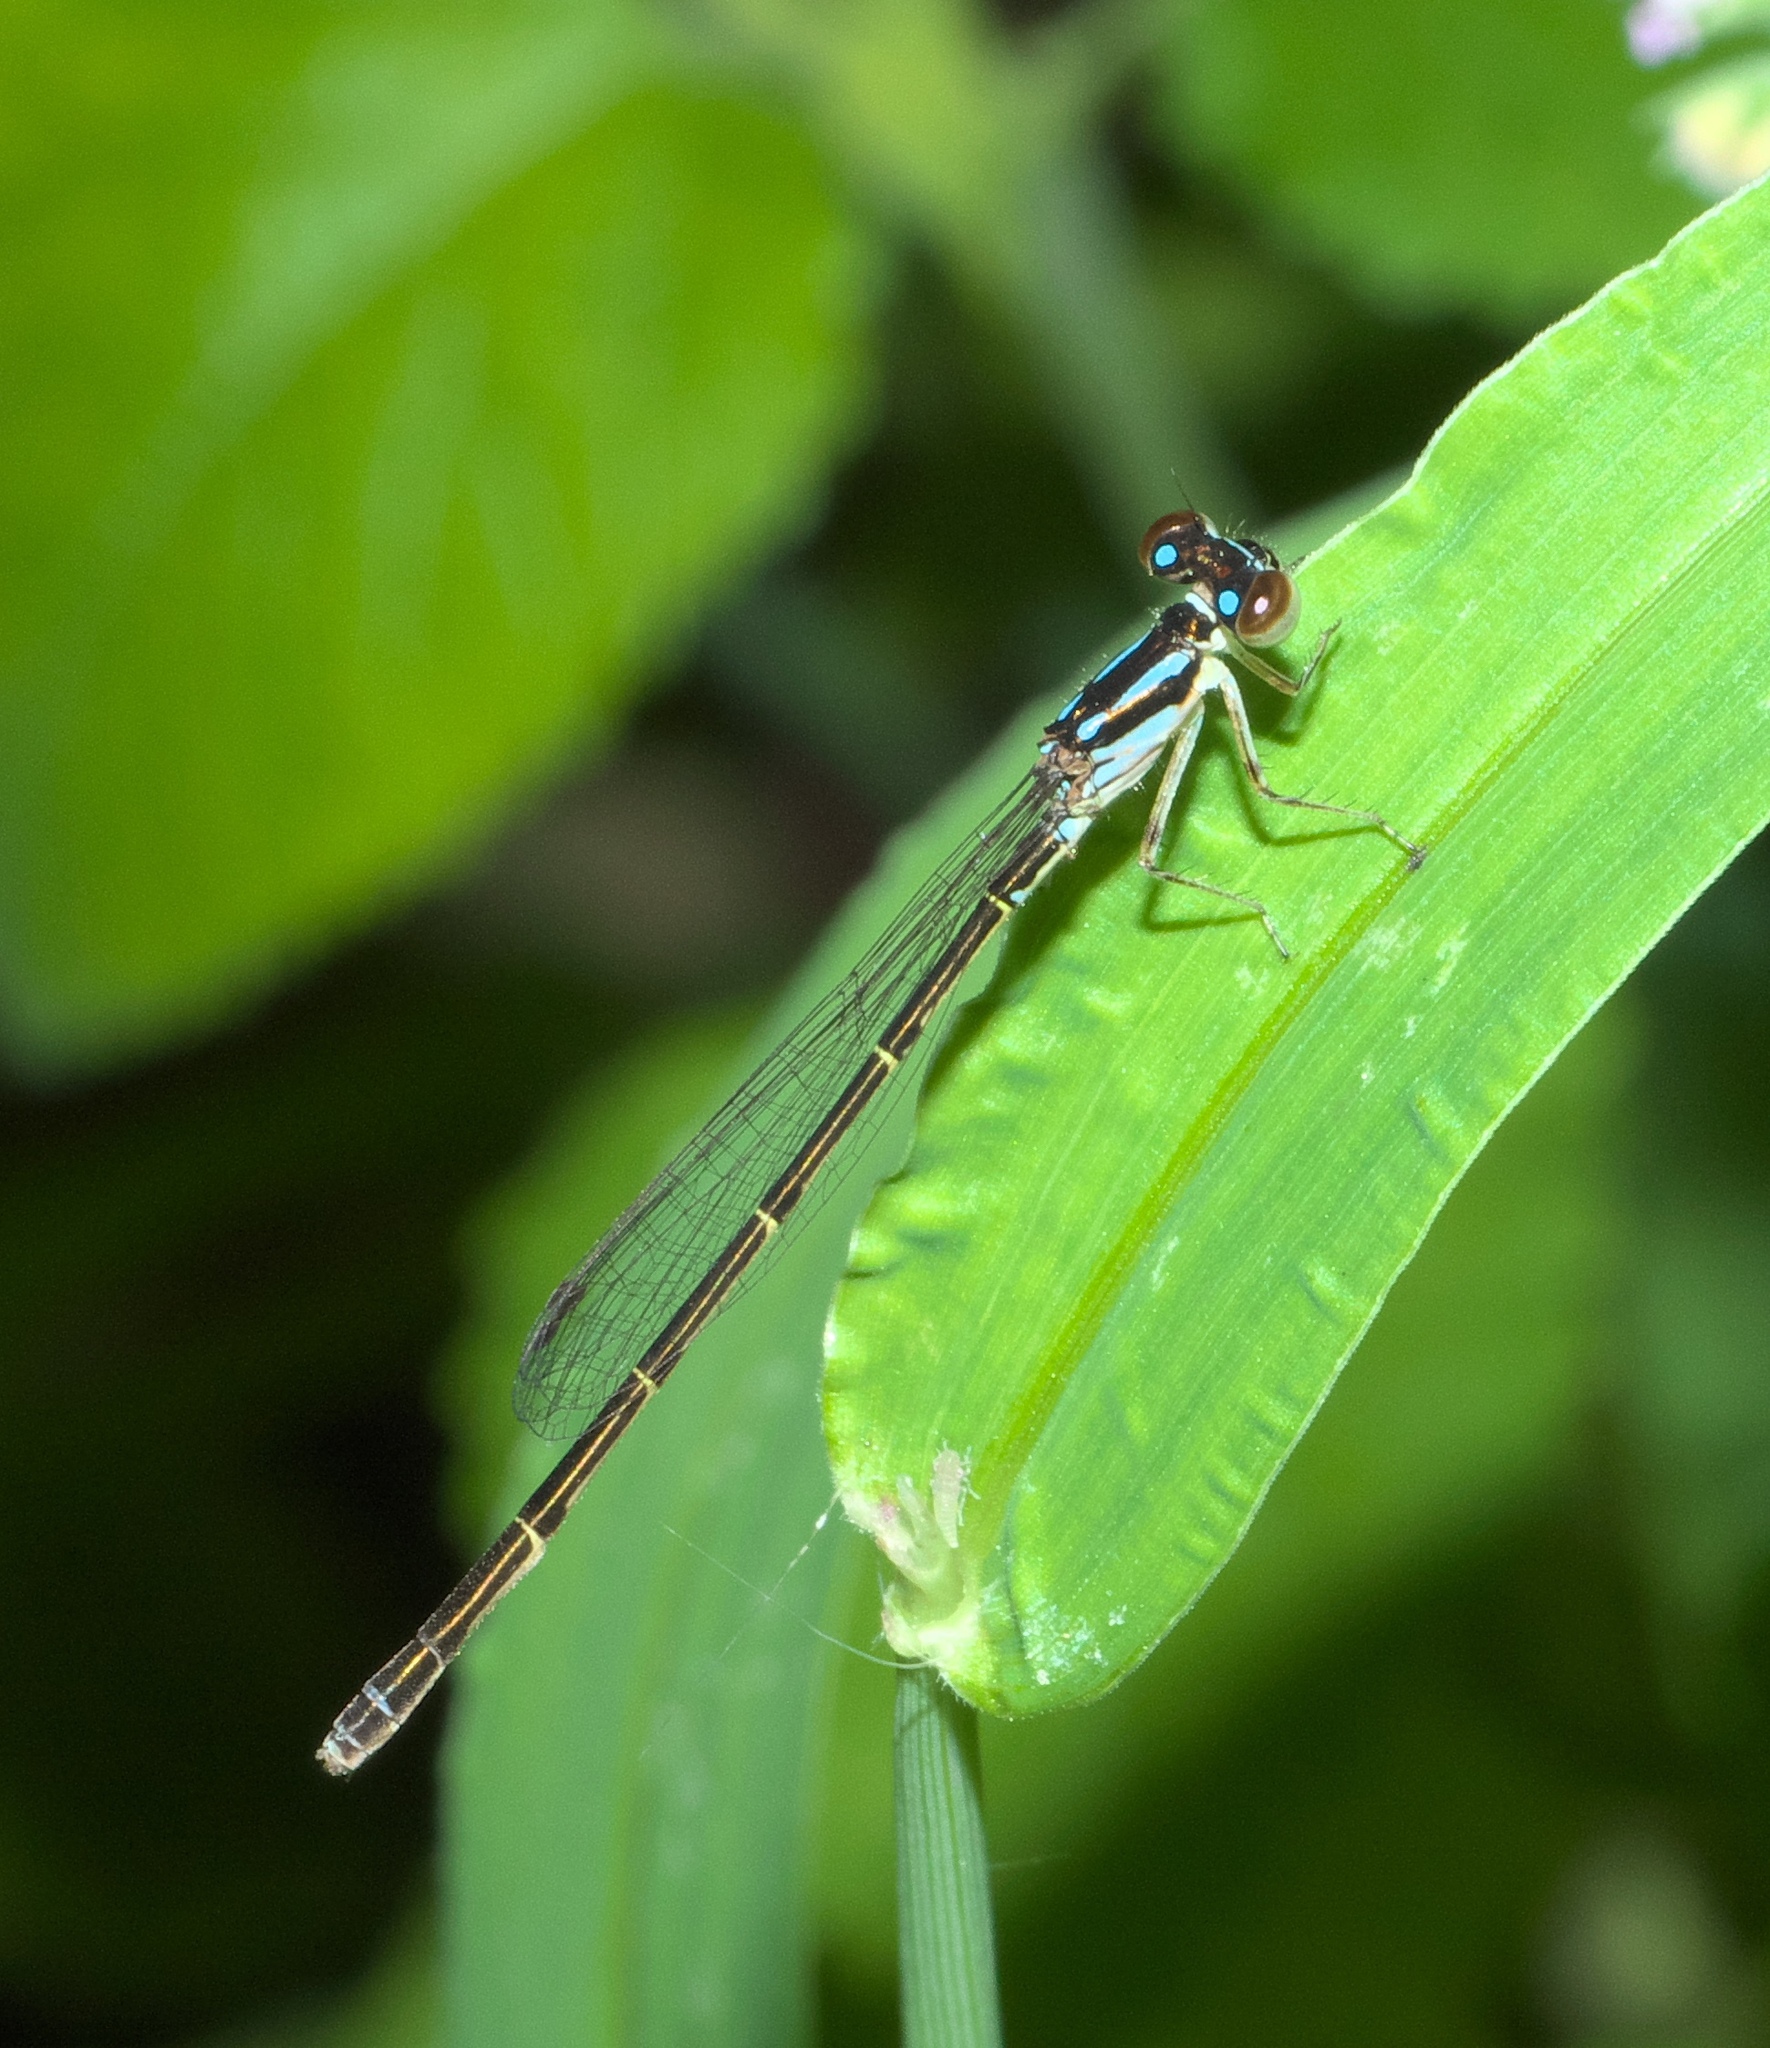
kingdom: Animalia
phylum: Arthropoda
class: Insecta
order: Odonata
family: Coenagrionidae
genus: Ischnura
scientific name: Ischnura posita
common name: Fragile forktail
